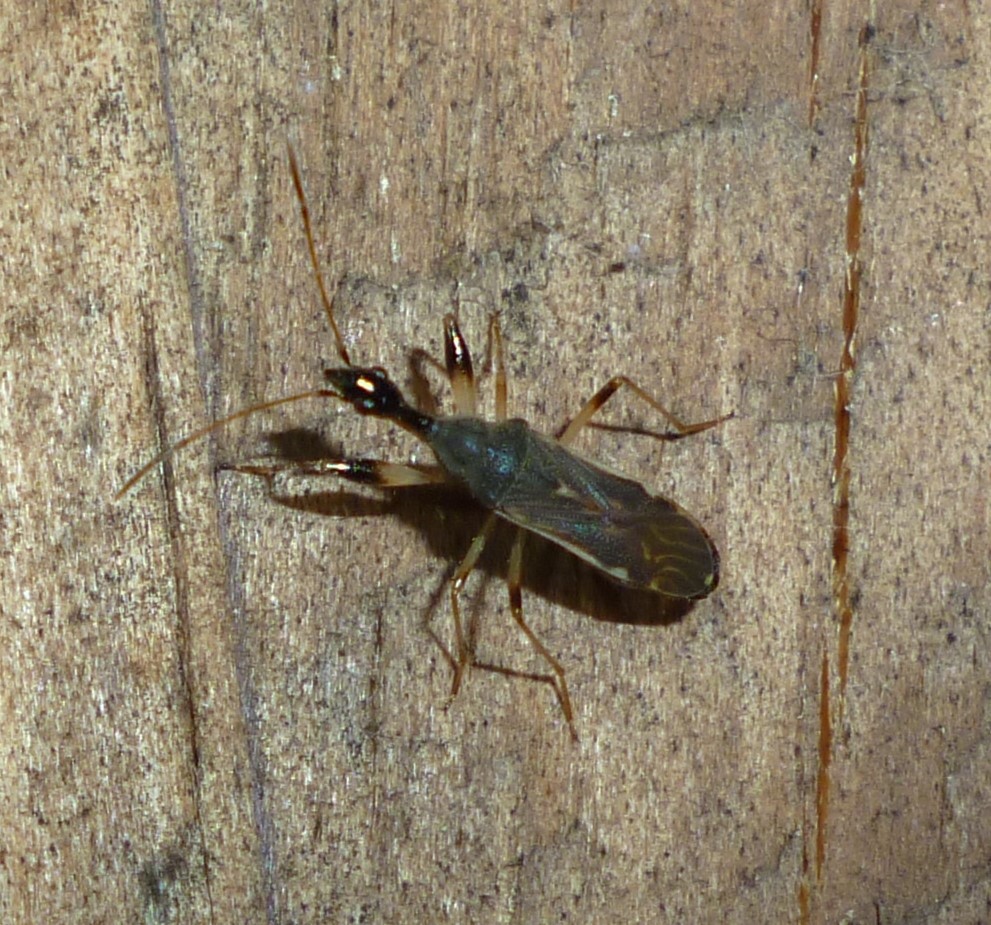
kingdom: Animalia
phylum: Arthropoda
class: Insecta
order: Hemiptera
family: Rhyparochromidae
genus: Myodocha
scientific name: Myodocha serripes
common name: Long-necked seed bug
